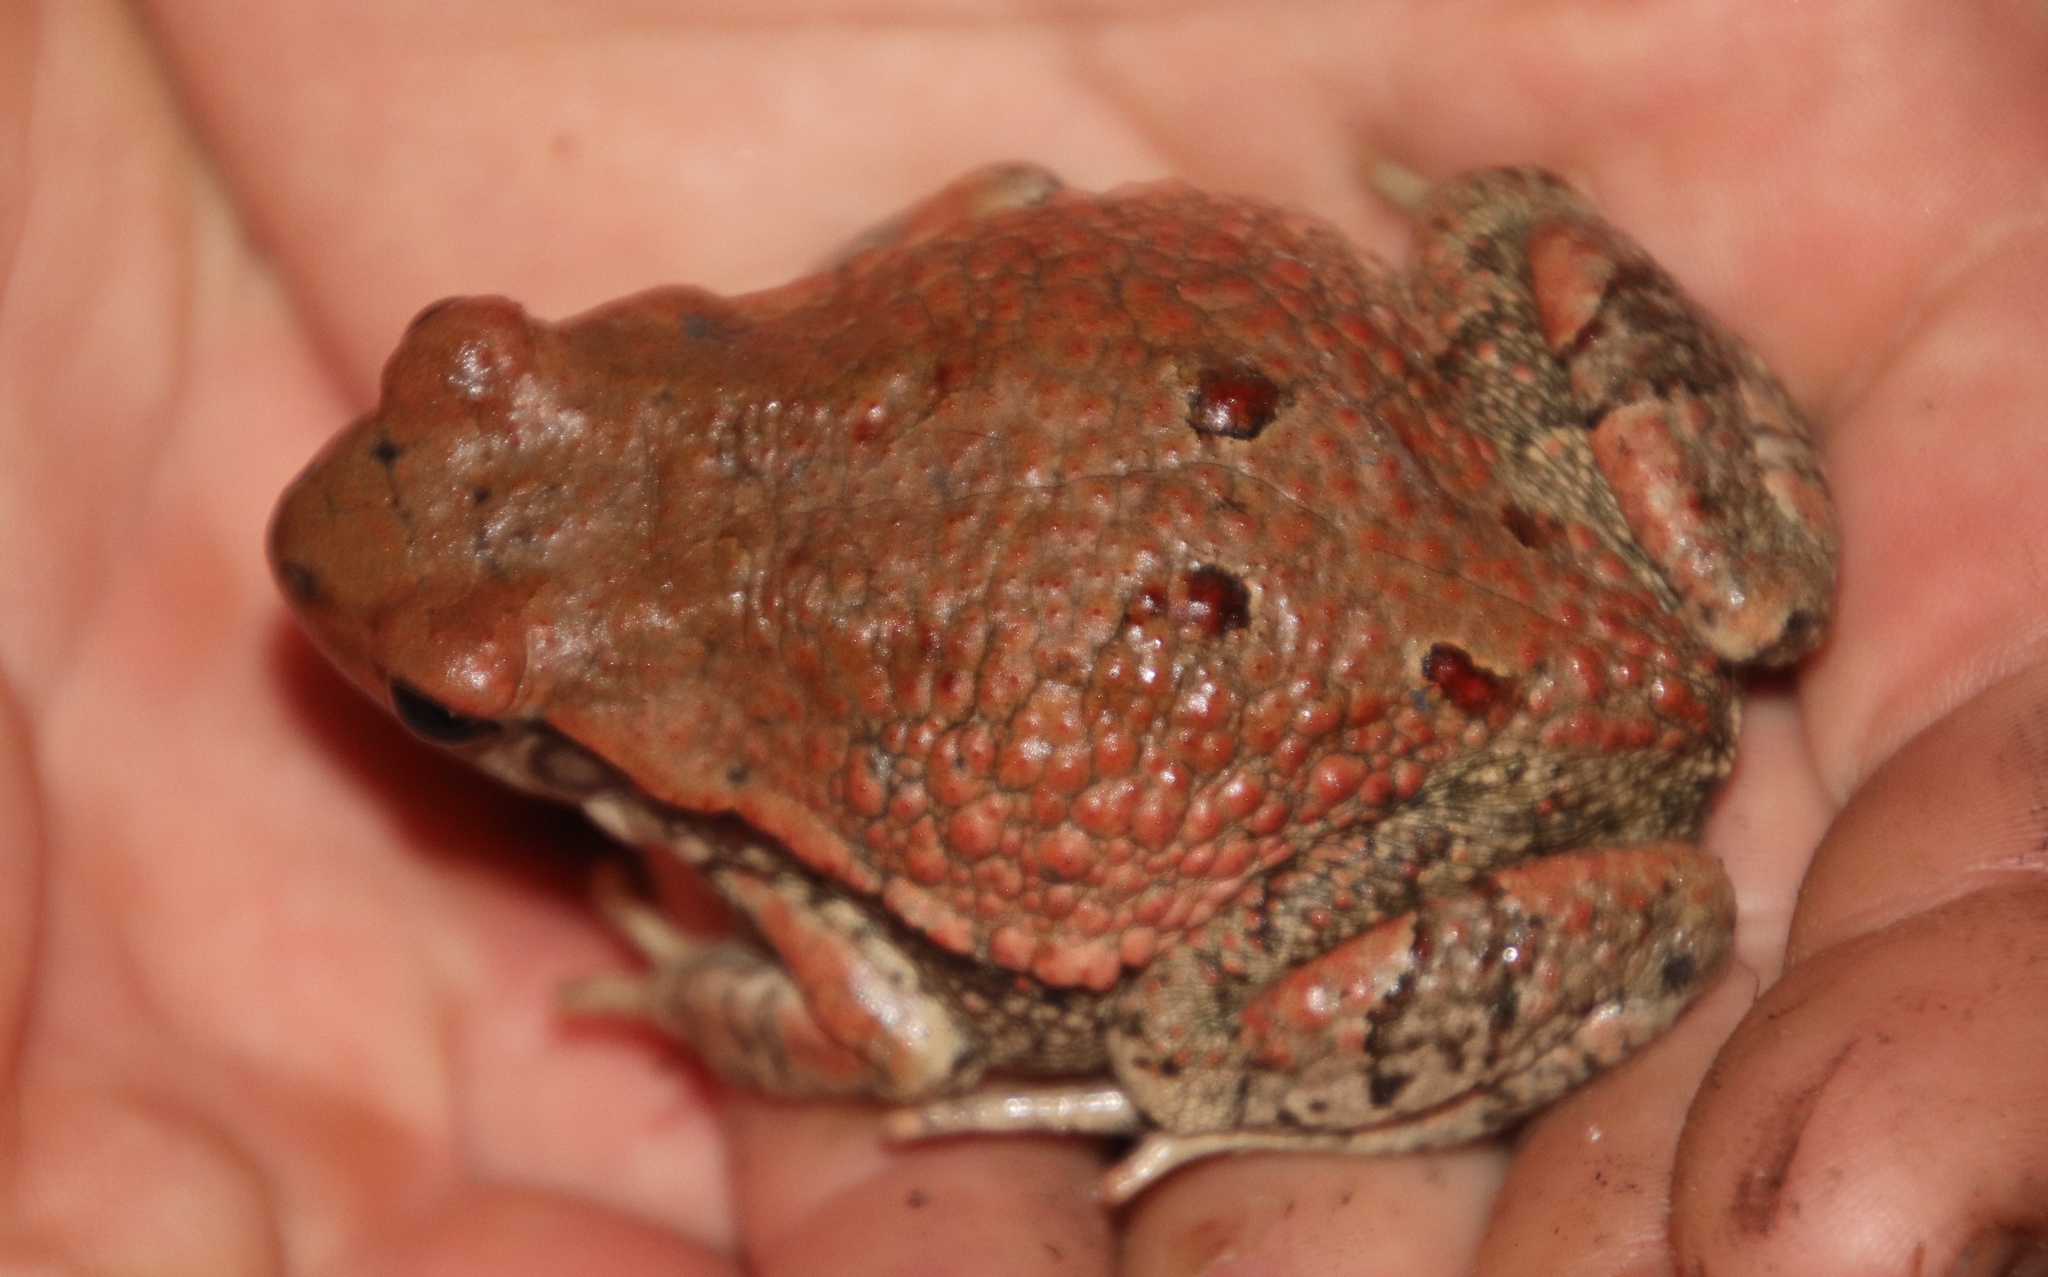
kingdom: Animalia
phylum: Chordata
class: Amphibia
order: Anura
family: Bufonidae
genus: Schismaderma
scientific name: Schismaderma carens
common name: African split-skin toad
